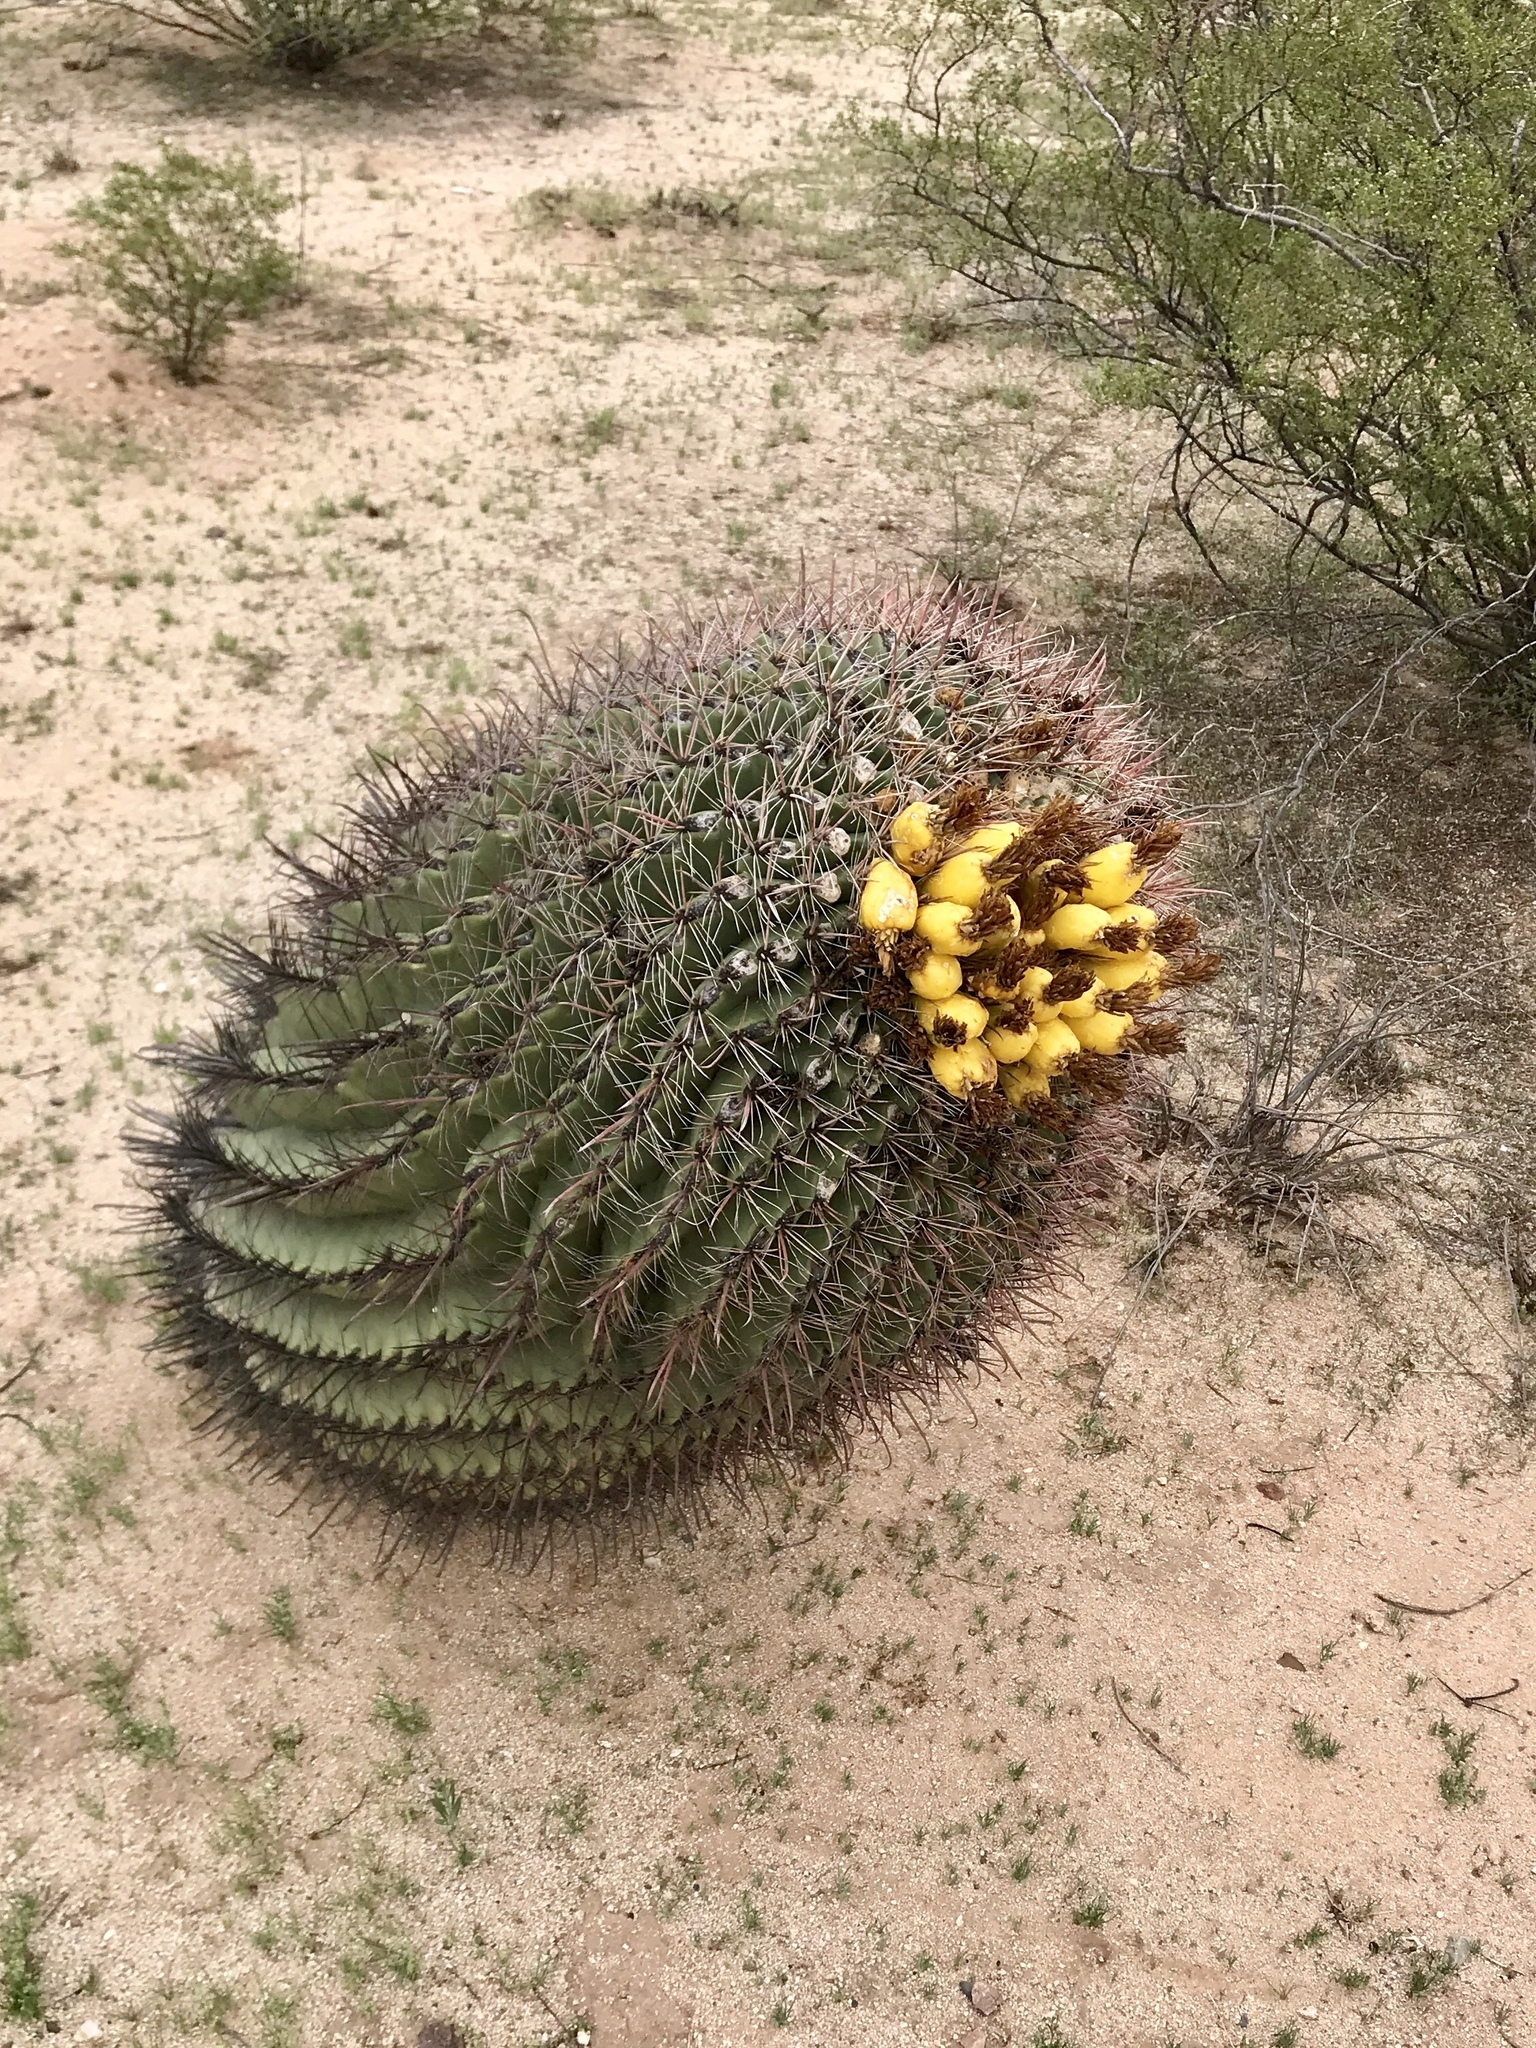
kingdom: Plantae
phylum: Tracheophyta
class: Magnoliopsida
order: Caryophyllales
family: Cactaceae
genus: Ferocactus
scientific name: Ferocactus wislizeni
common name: Candy barrel cactus
